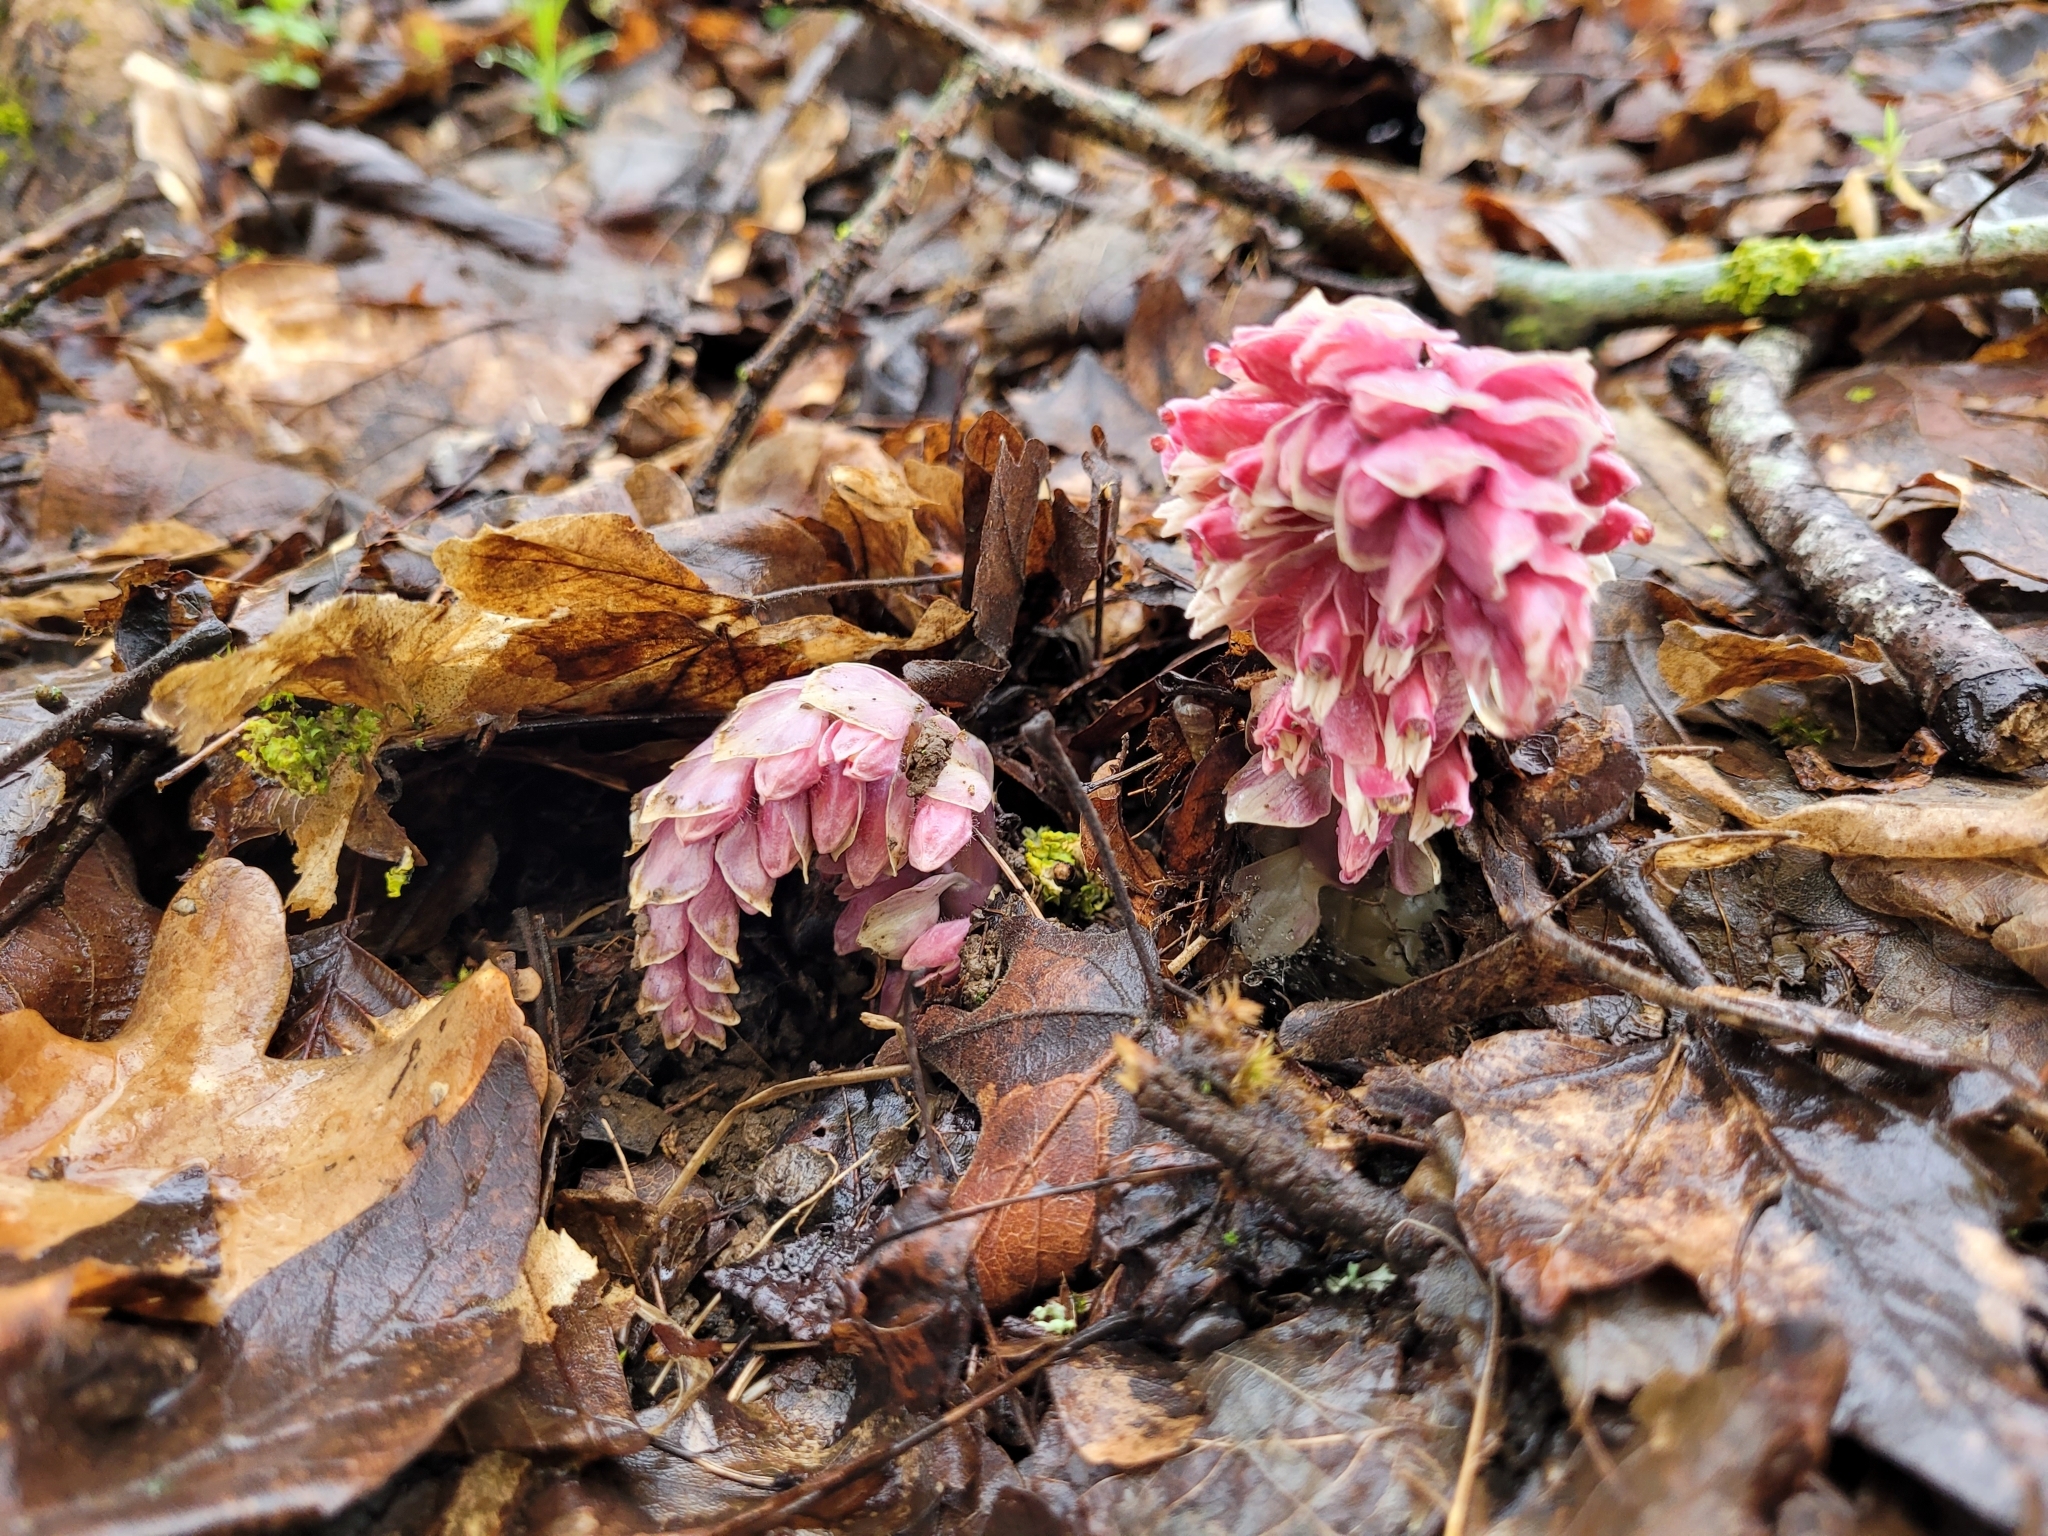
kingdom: Plantae
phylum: Tracheophyta
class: Magnoliopsida
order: Lamiales
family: Orobanchaceae
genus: Lathraea
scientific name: Lathraea squamaria
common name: Toothwort
